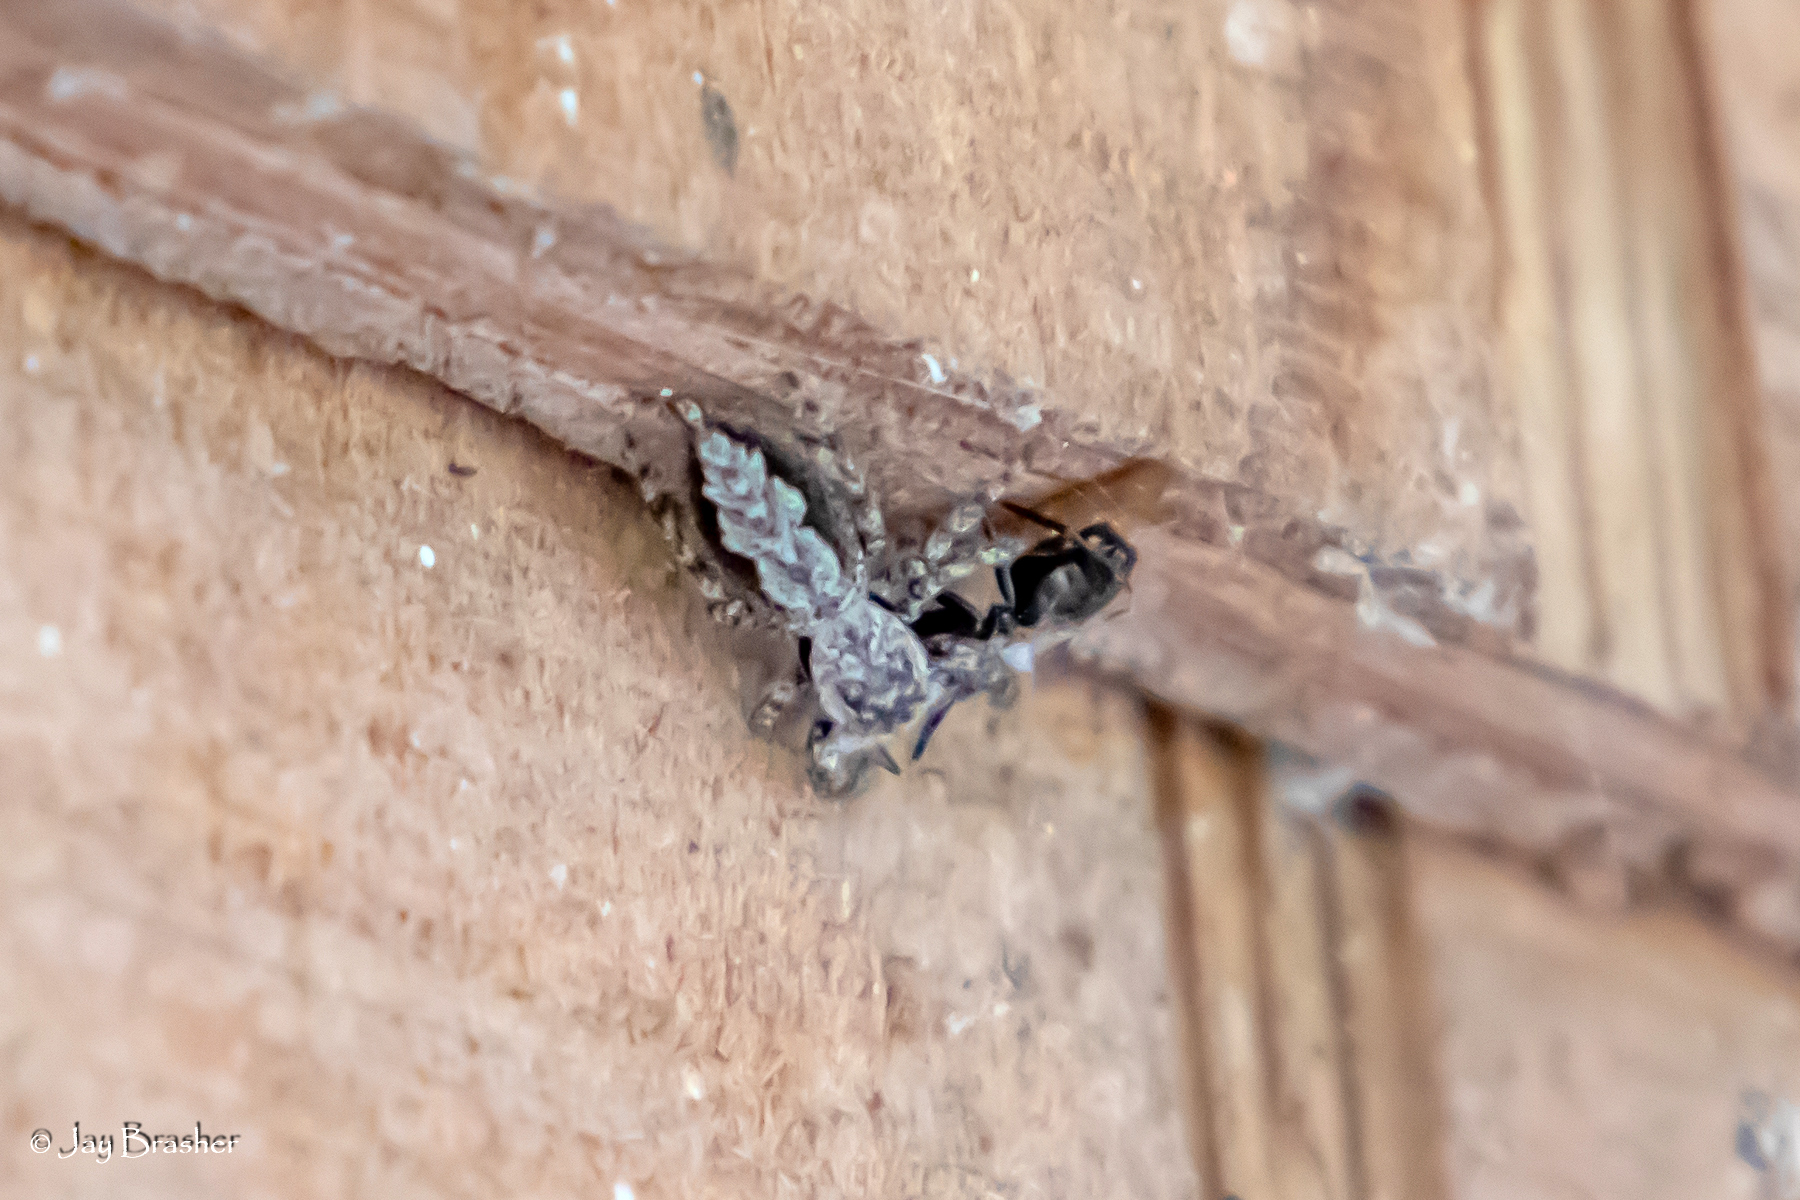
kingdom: Animalia
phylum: Arthropoda
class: Arachnida
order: Araneae
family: Salticidae
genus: Platycryptus
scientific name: Platycryptus undatus
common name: Tan jumping spider
